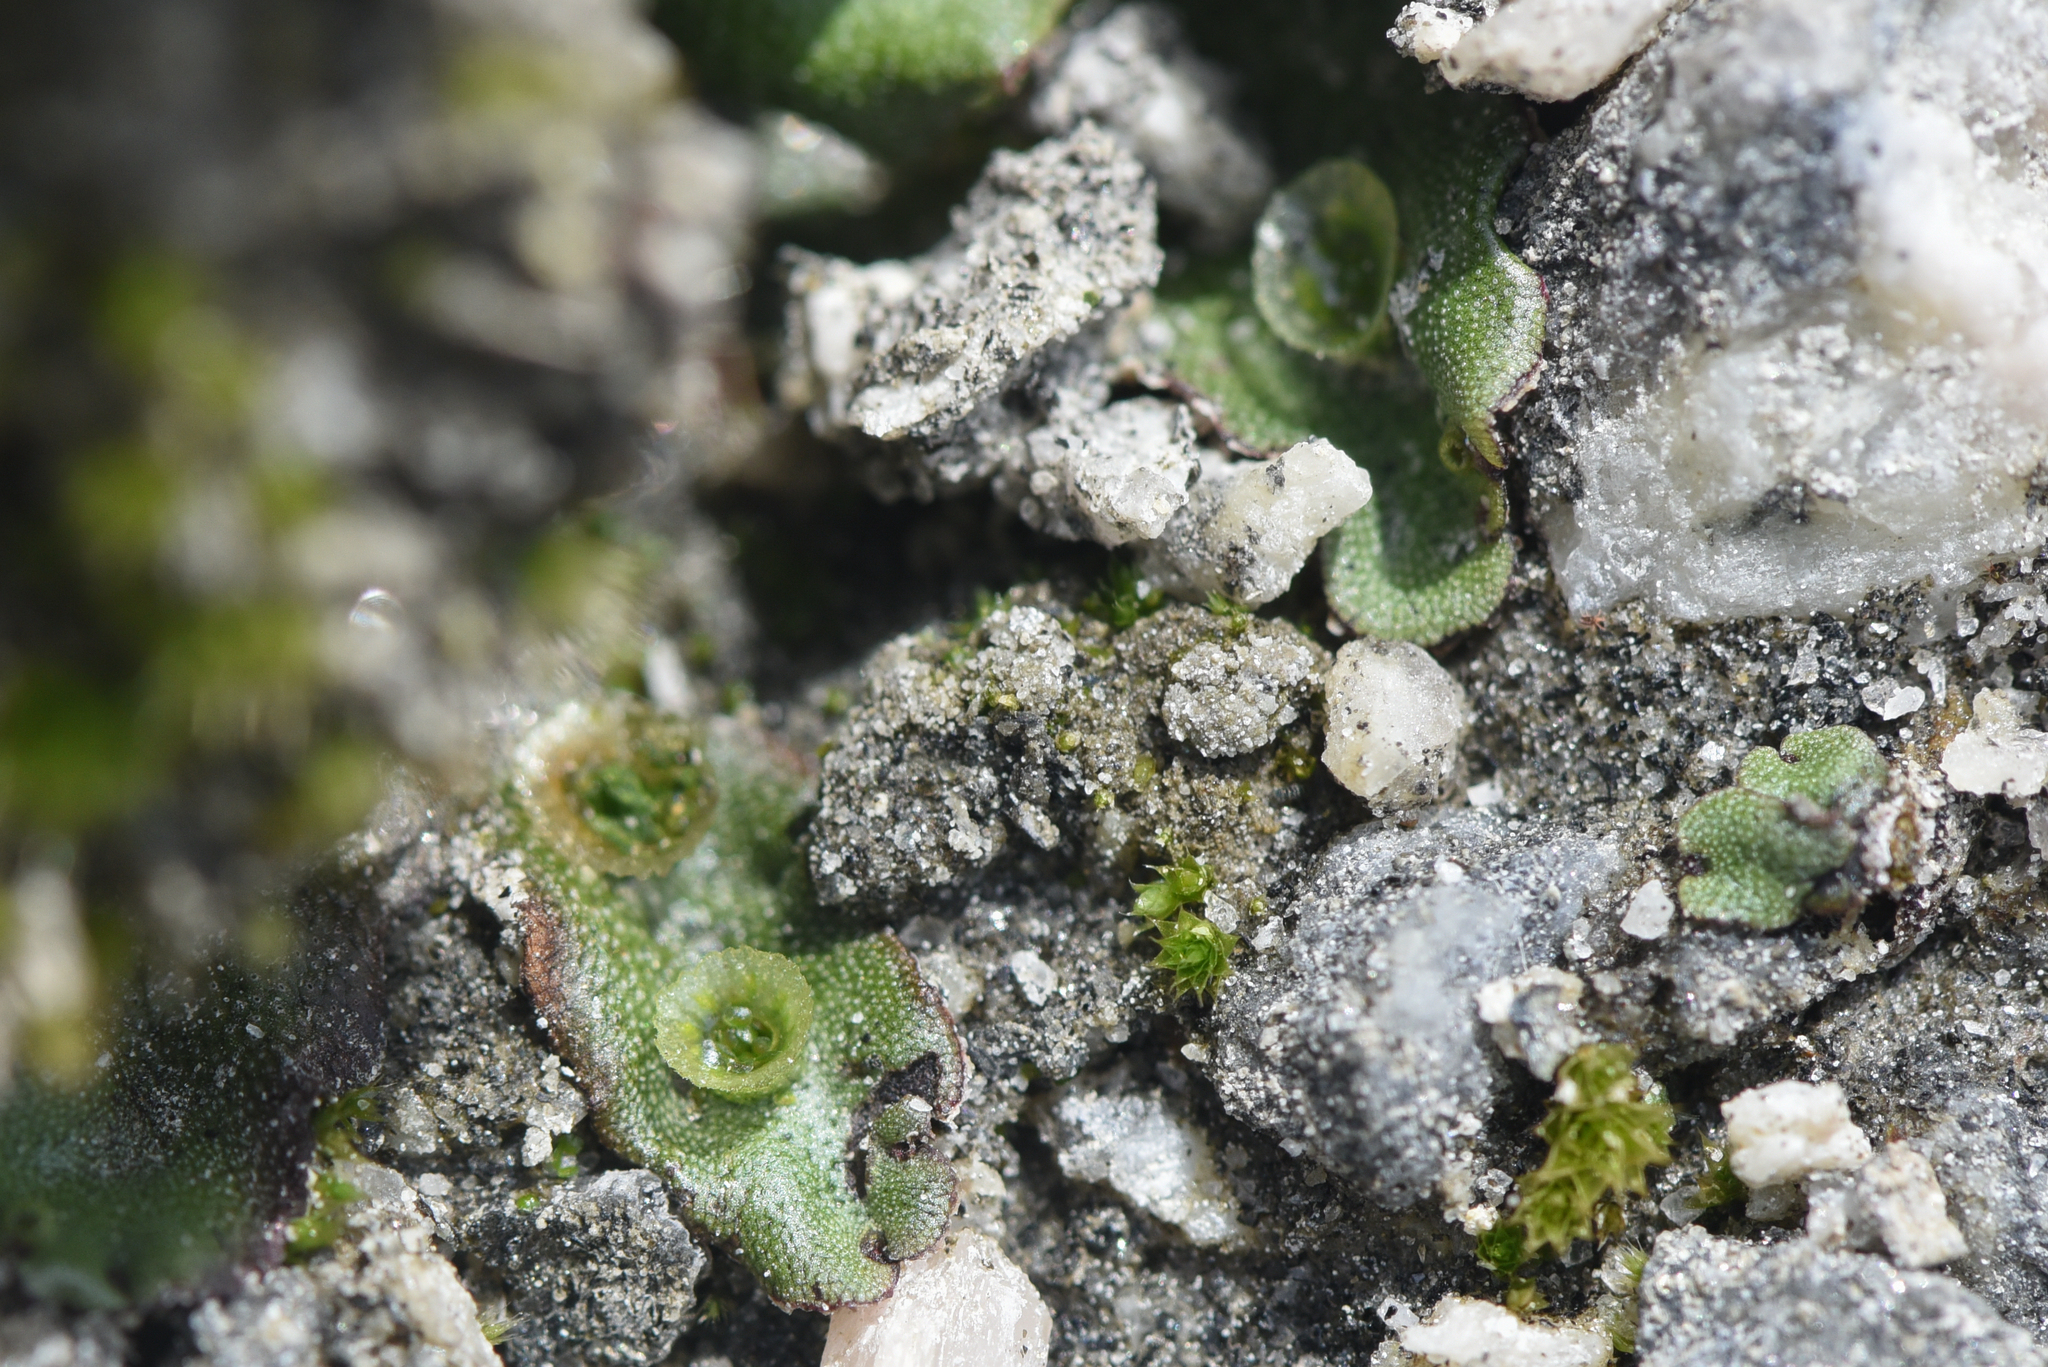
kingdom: Plantae
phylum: Marchantiophyta
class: Marchantiopsida
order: Marchantiales
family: Marchantiaceae
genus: Marchantia
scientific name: Marchantia polymorpha
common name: Common liverwort
